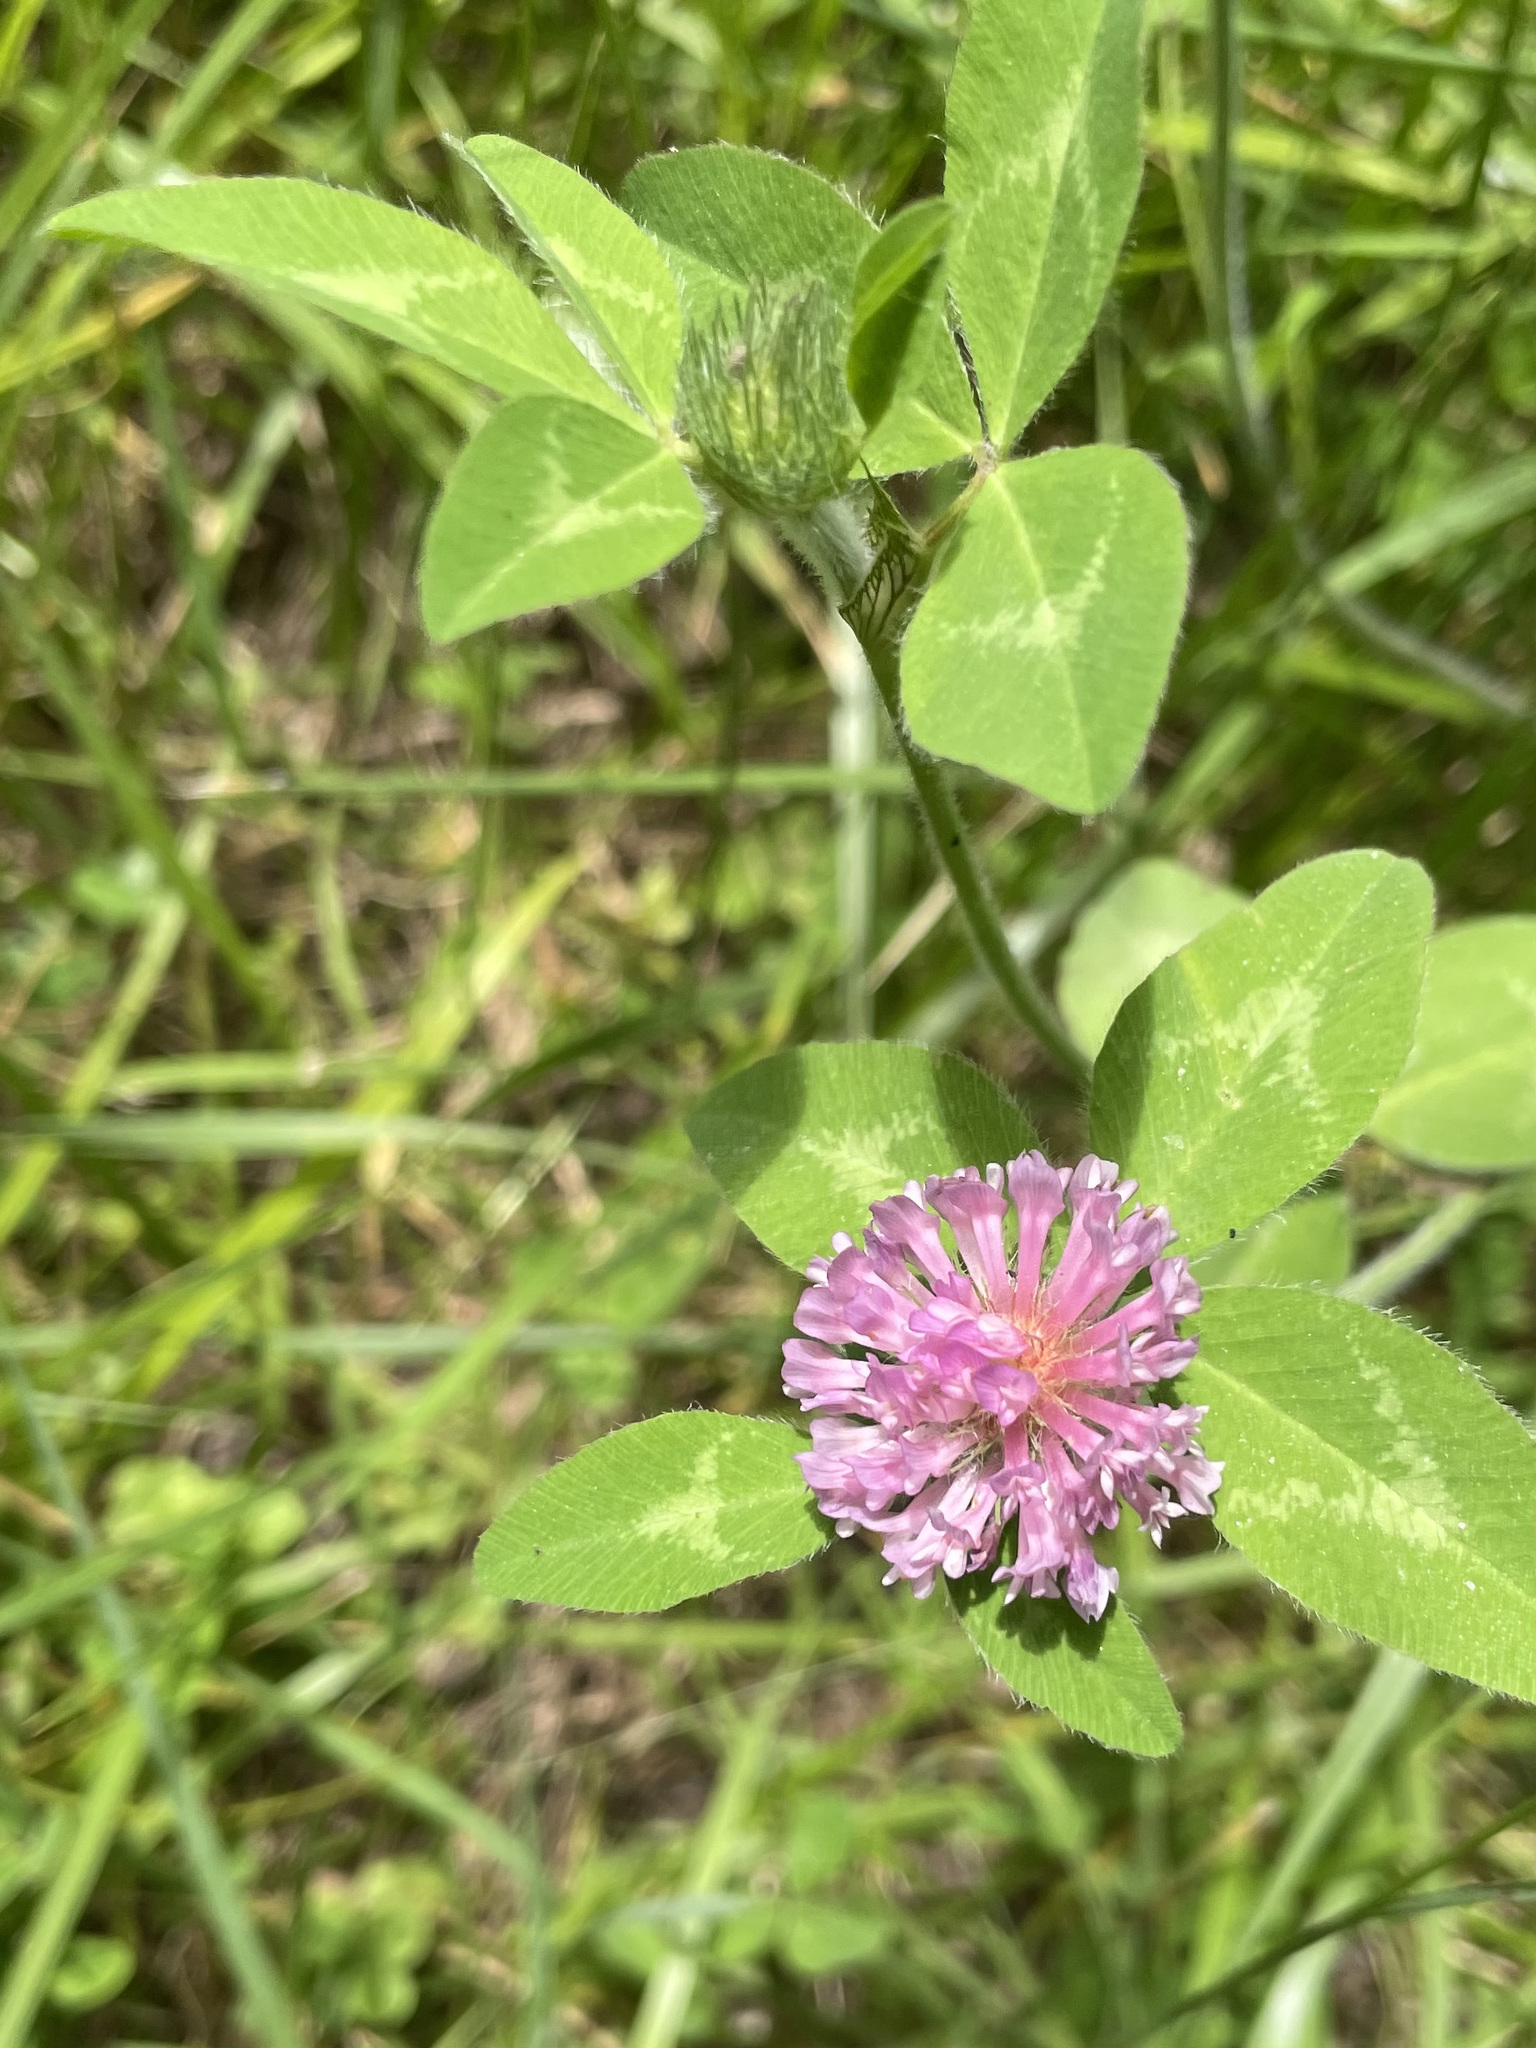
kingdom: Plantae
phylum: Tracheophyta
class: Magnoliopsida
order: Fabales
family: Fabaceae
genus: Trifolium
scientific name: Trifolium pratense
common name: Red clover
